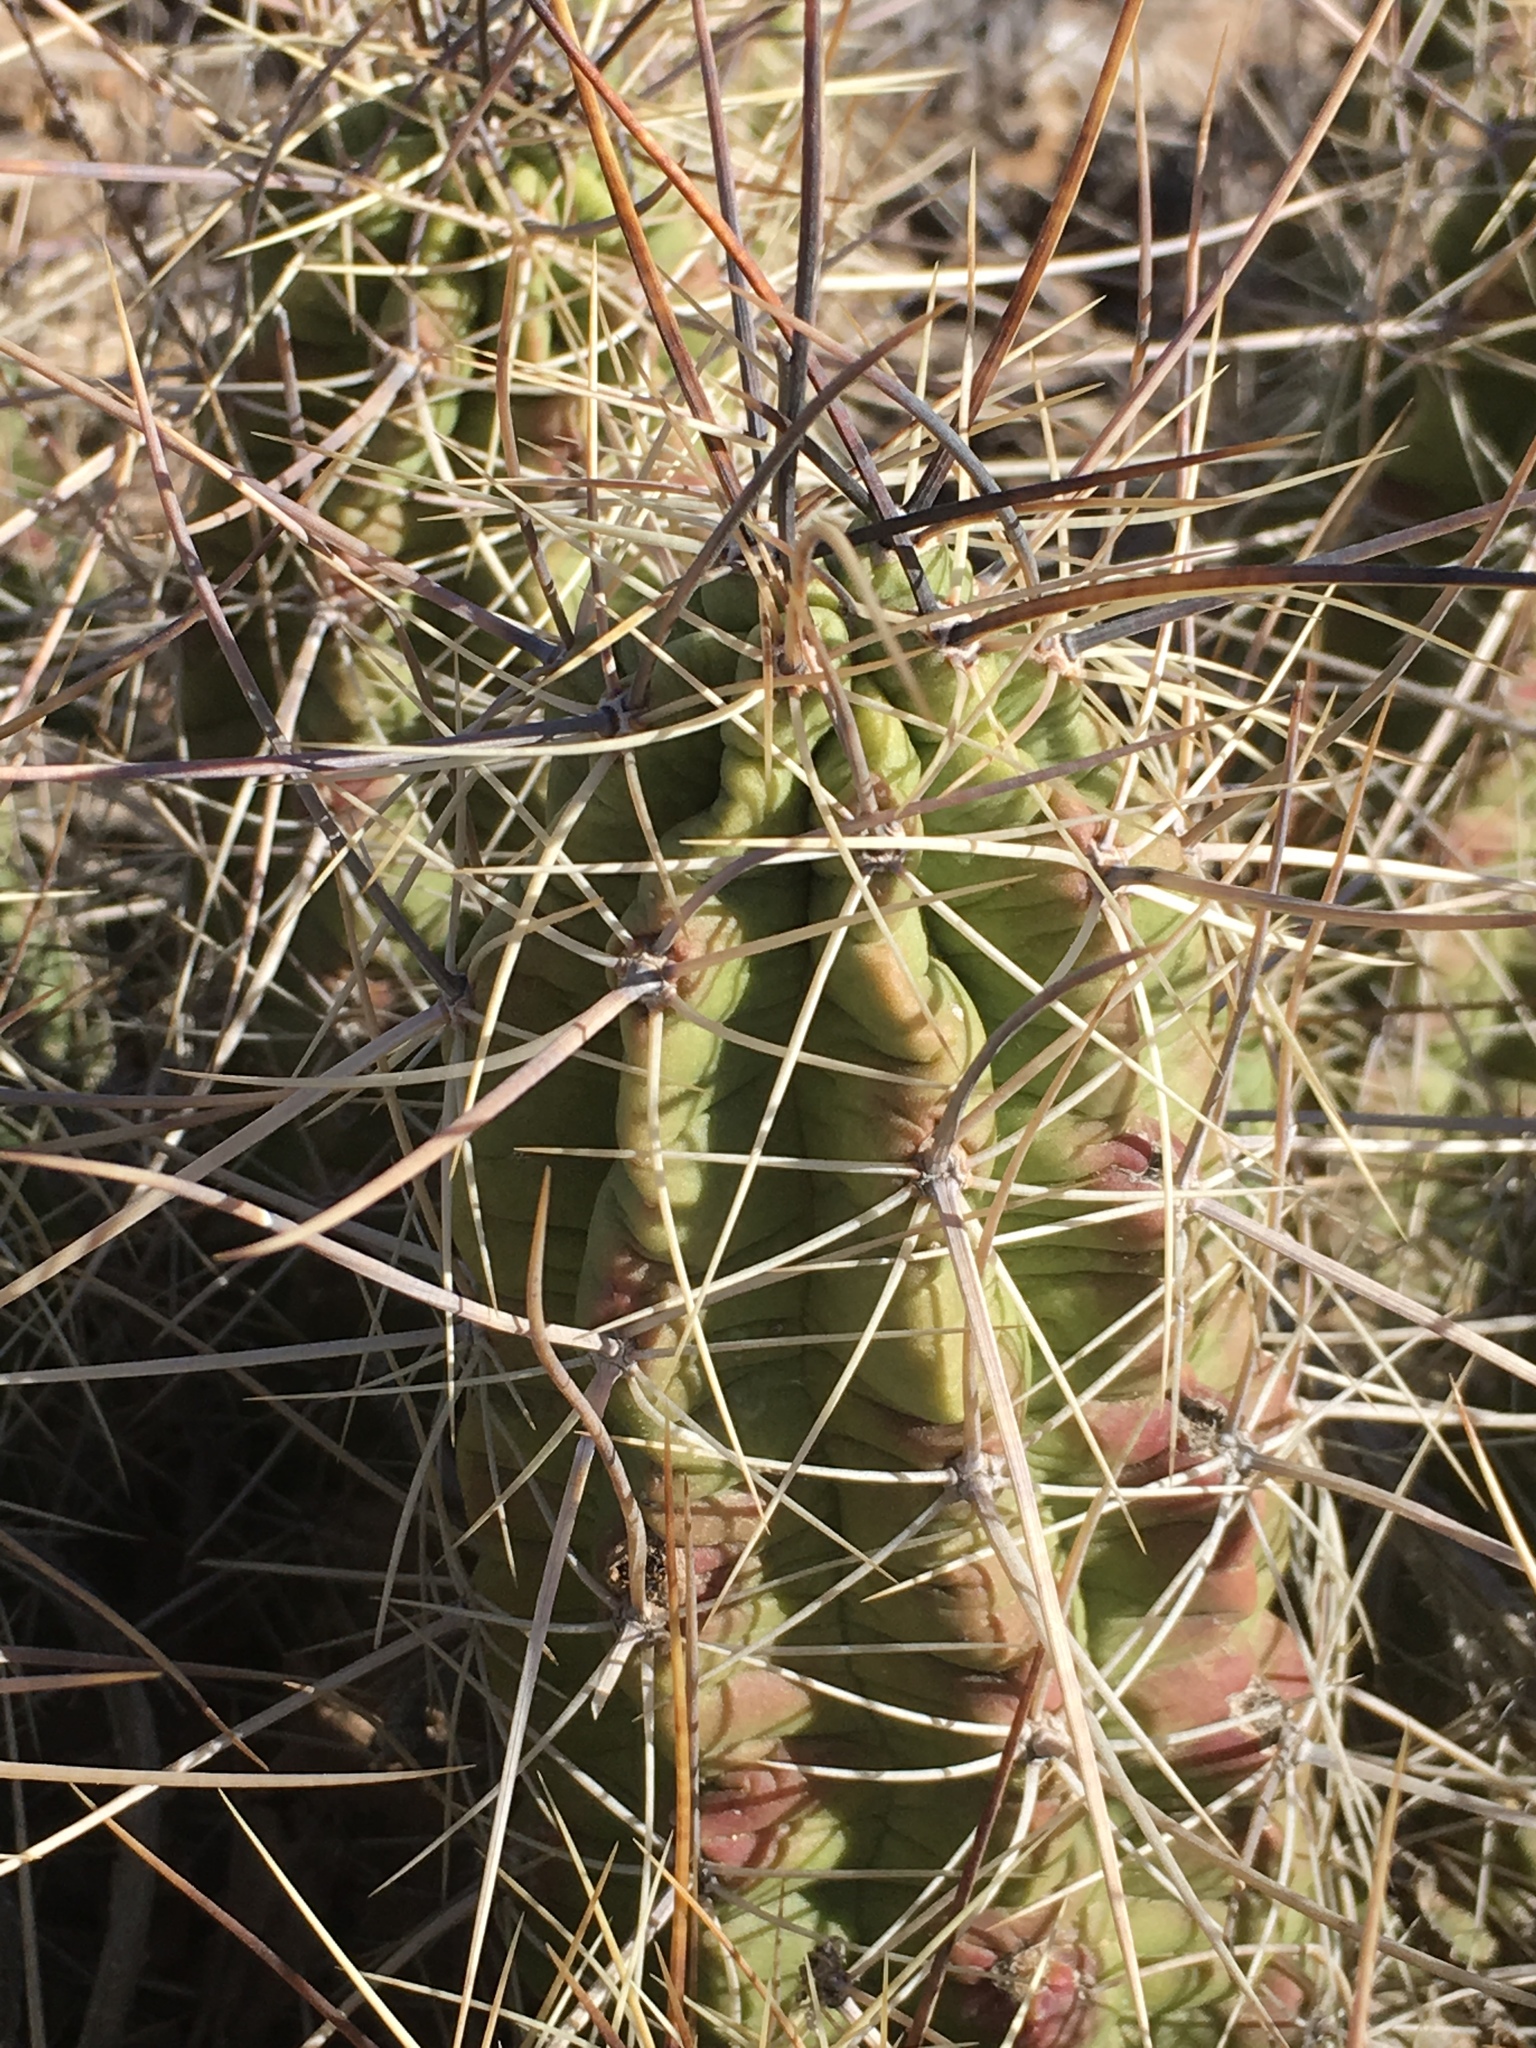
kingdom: Plantae
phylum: Tracheophyta
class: Magnoliopsida
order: Caryophyllales
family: Cactaceae
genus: Echinocereus
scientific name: Echinocereus enneacanthus
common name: Pitaya
